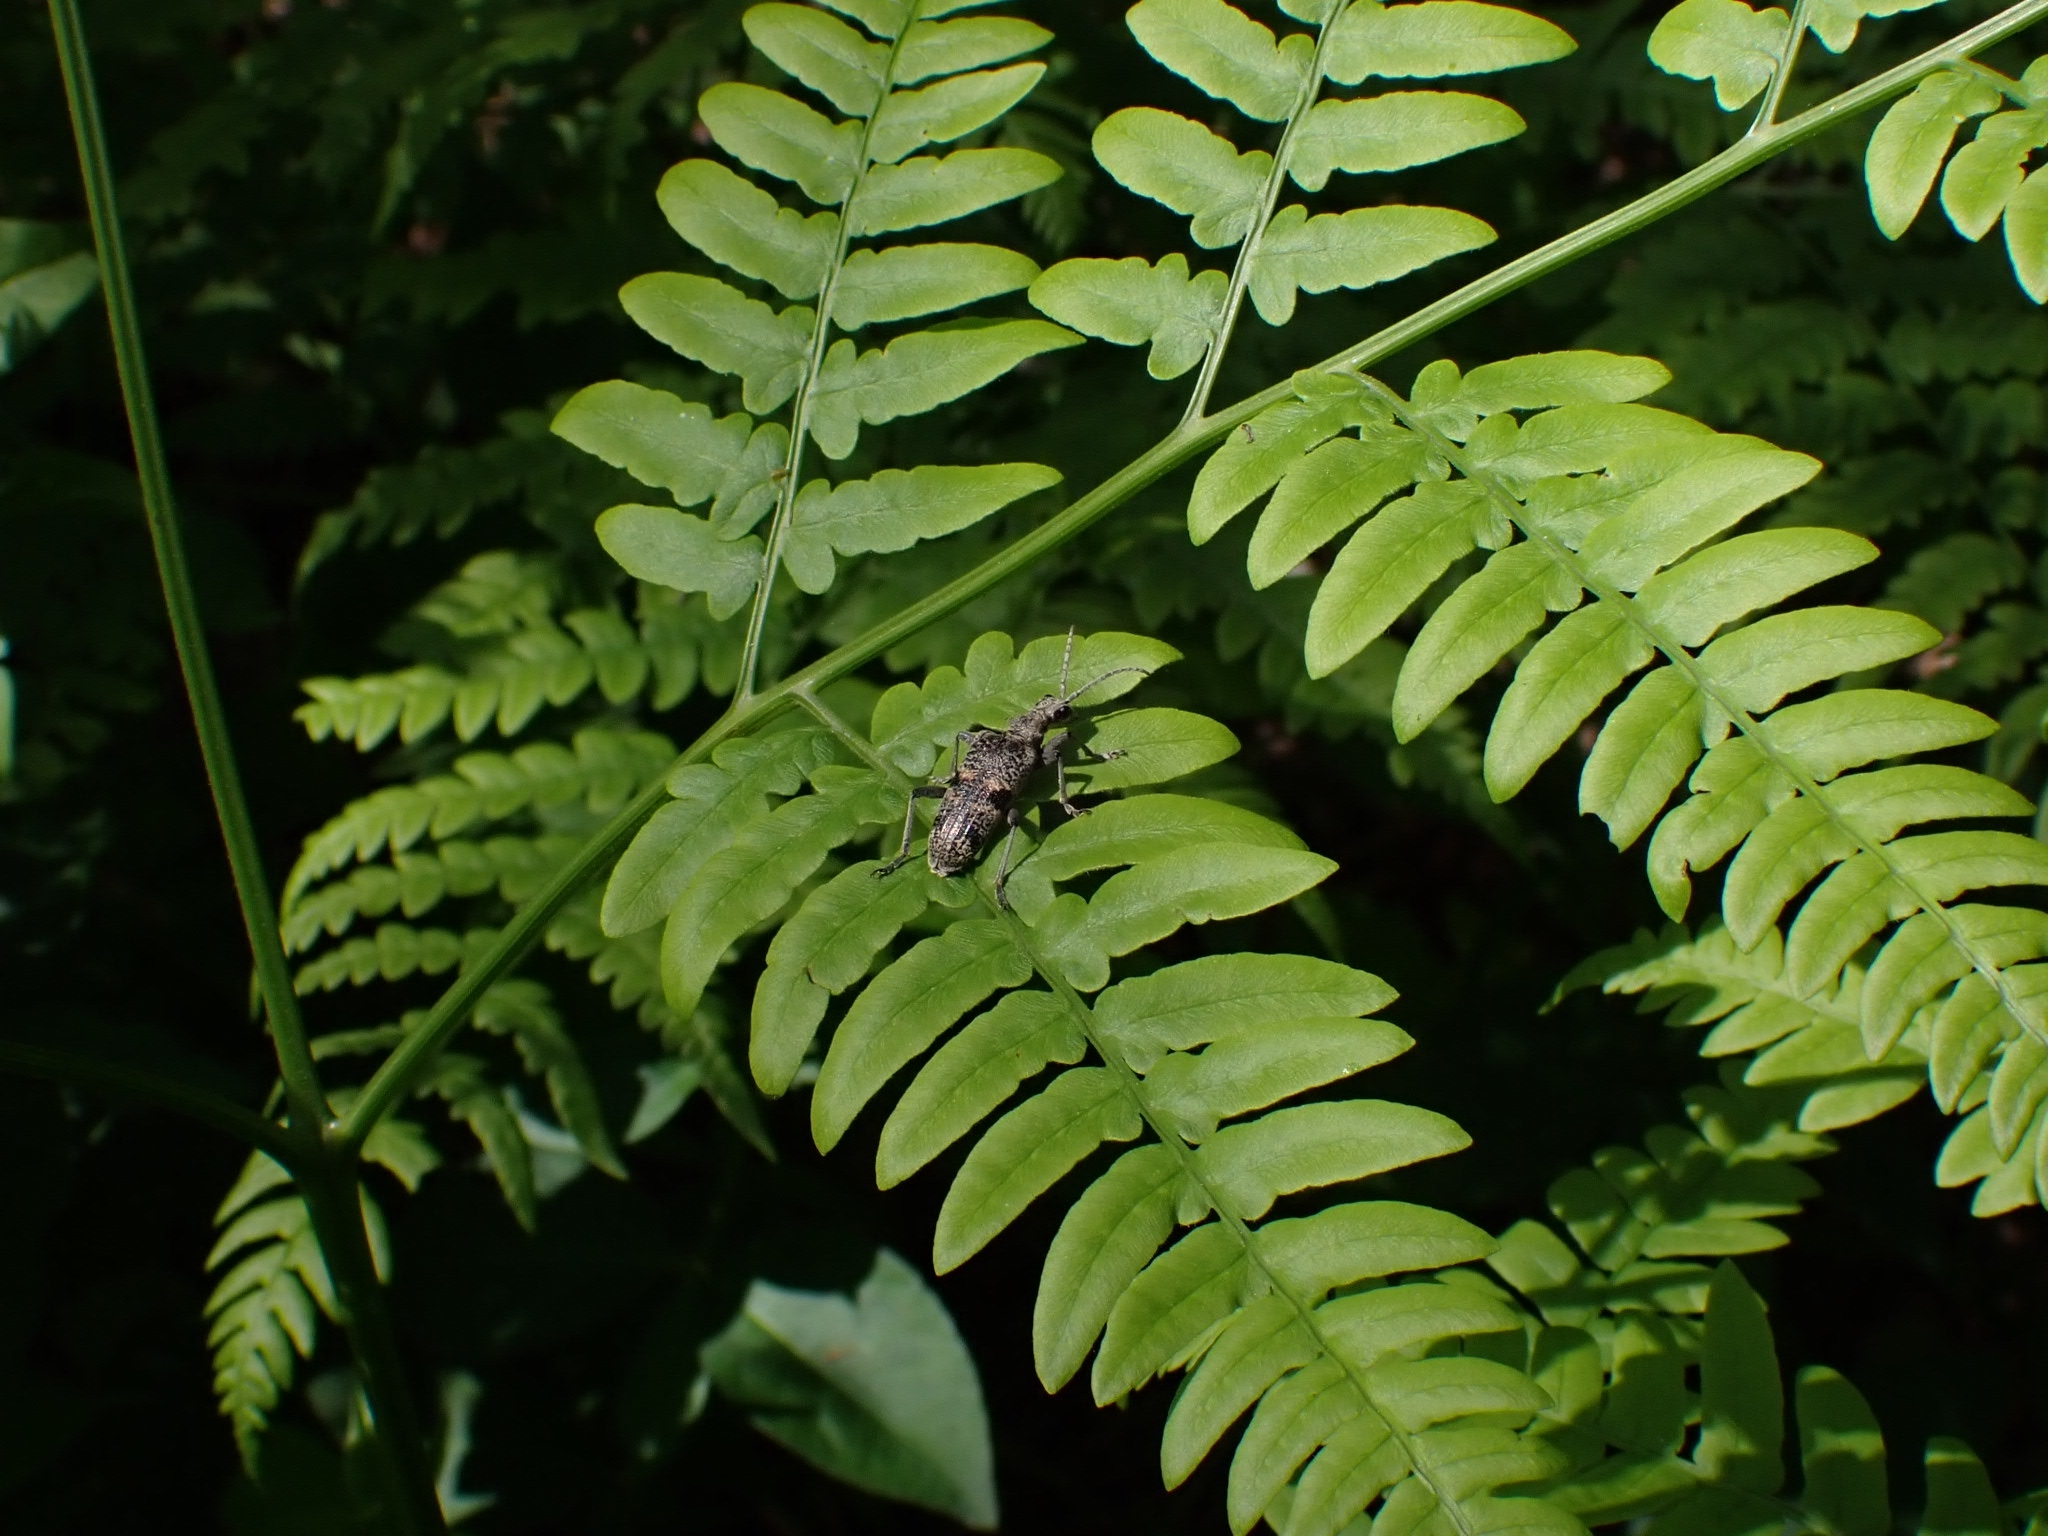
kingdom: Animalia
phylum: Arthropoda
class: Insecta
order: Coleoptera
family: Cerambycidae
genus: Rhagium
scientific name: Rhagium mordax
